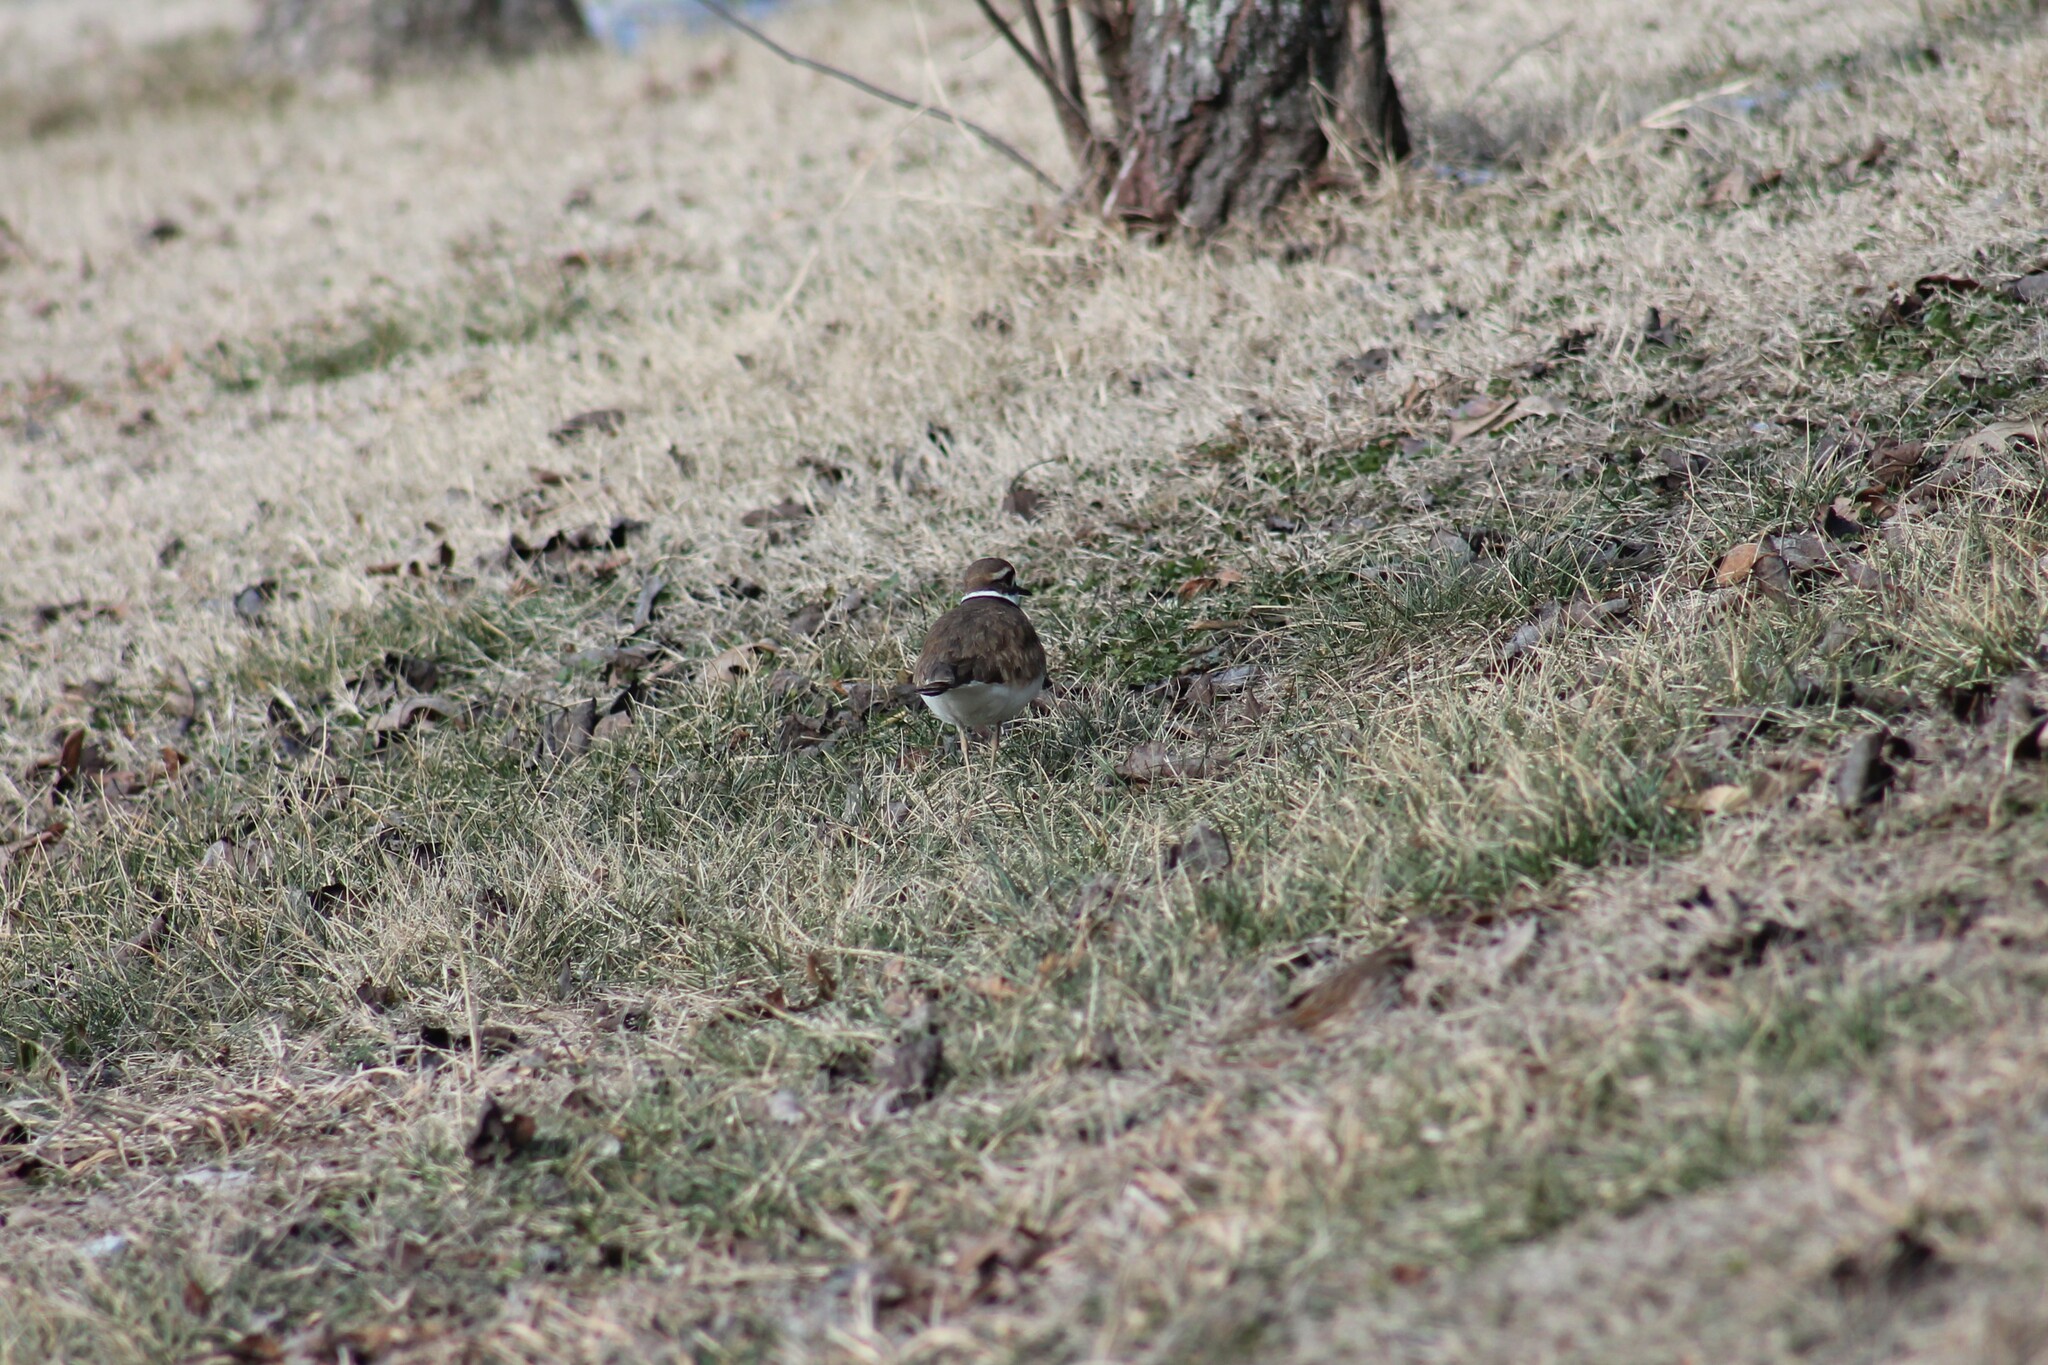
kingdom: Animalia
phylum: Chordata
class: Aves
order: Charadriiformes
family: Charadriidae
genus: Charadrius
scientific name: Charadrius vociferus
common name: Killdeer
